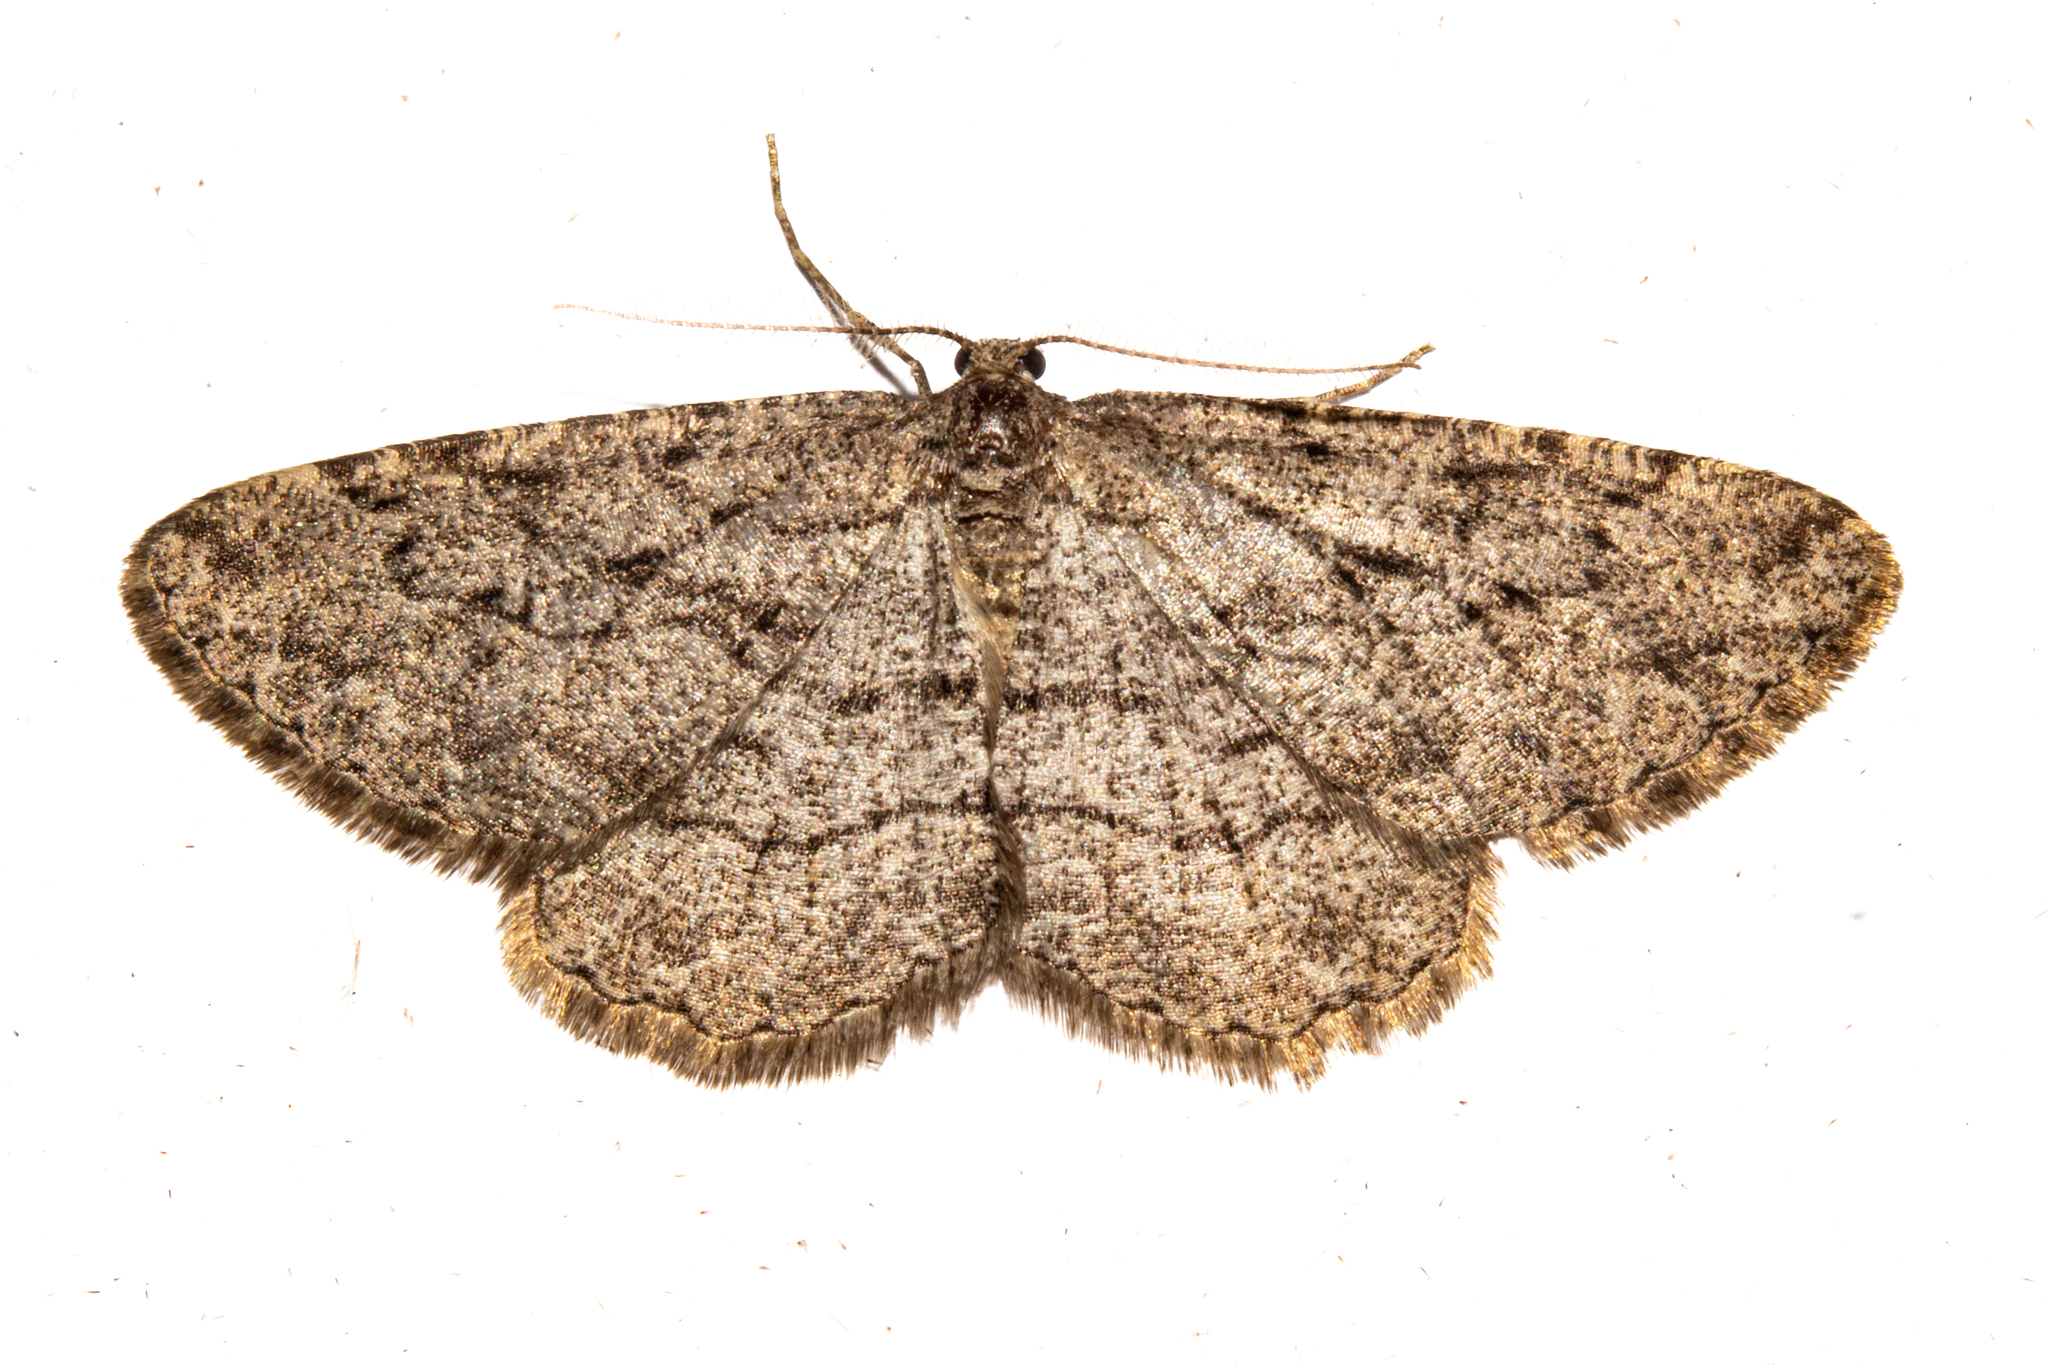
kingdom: Animalia
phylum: Arthropoda
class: Insecta
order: Lepidoptera
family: Geometridae
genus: Zermizinga
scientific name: Zermizinga indocilisaria
